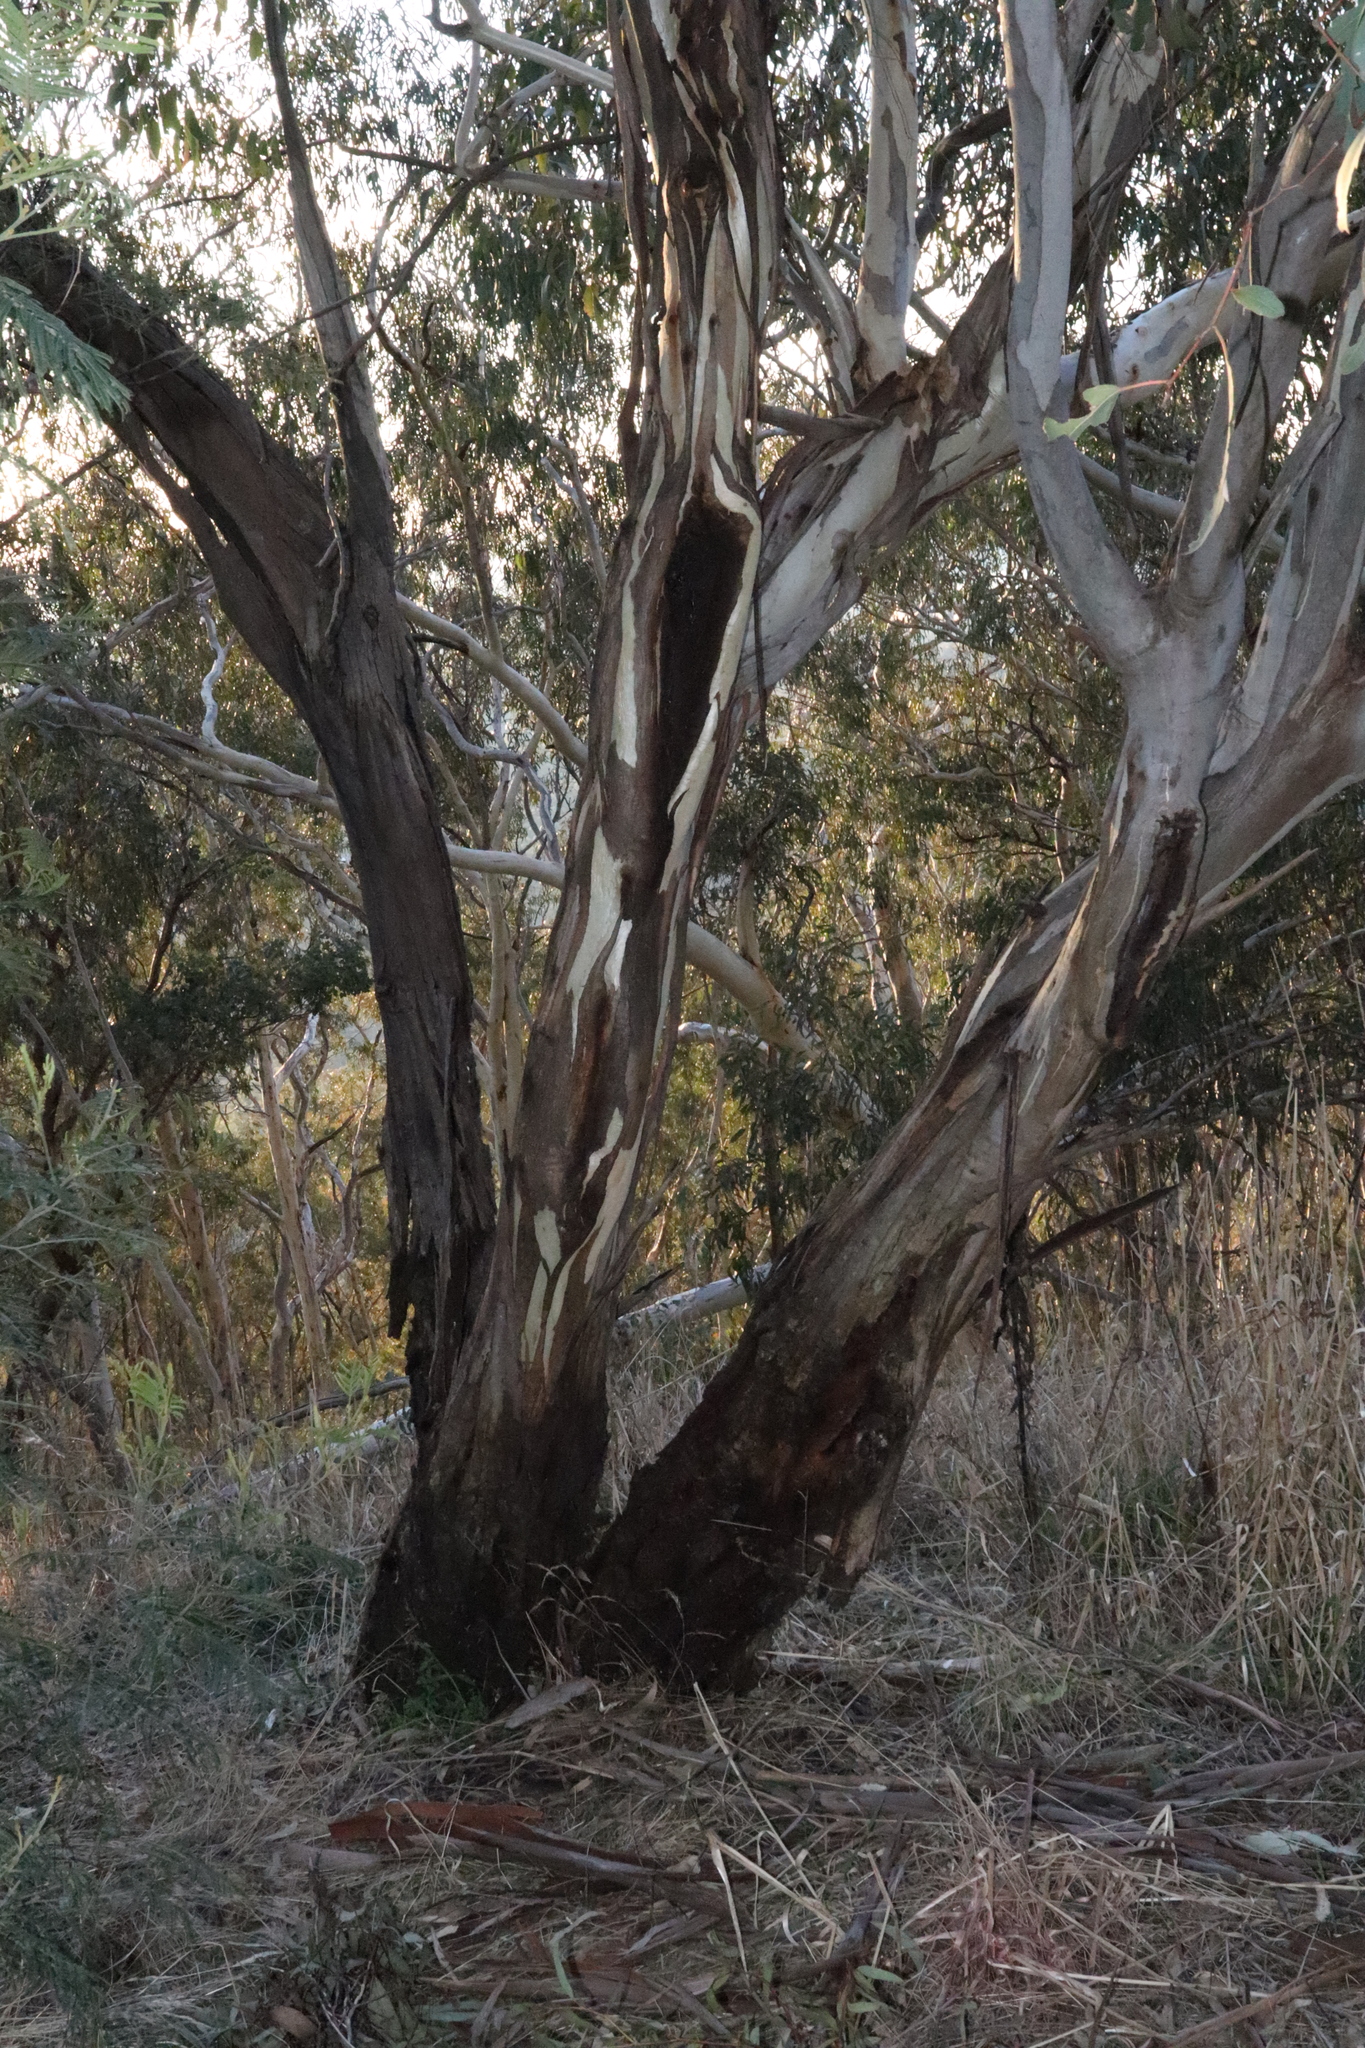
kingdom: Plantae
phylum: Tracheophyta
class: Magnoliopsida
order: Myrtales
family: Myrtaceae
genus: Eucalyptus
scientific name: Eucalyptus blakelyi
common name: Blakely's-red-gum
